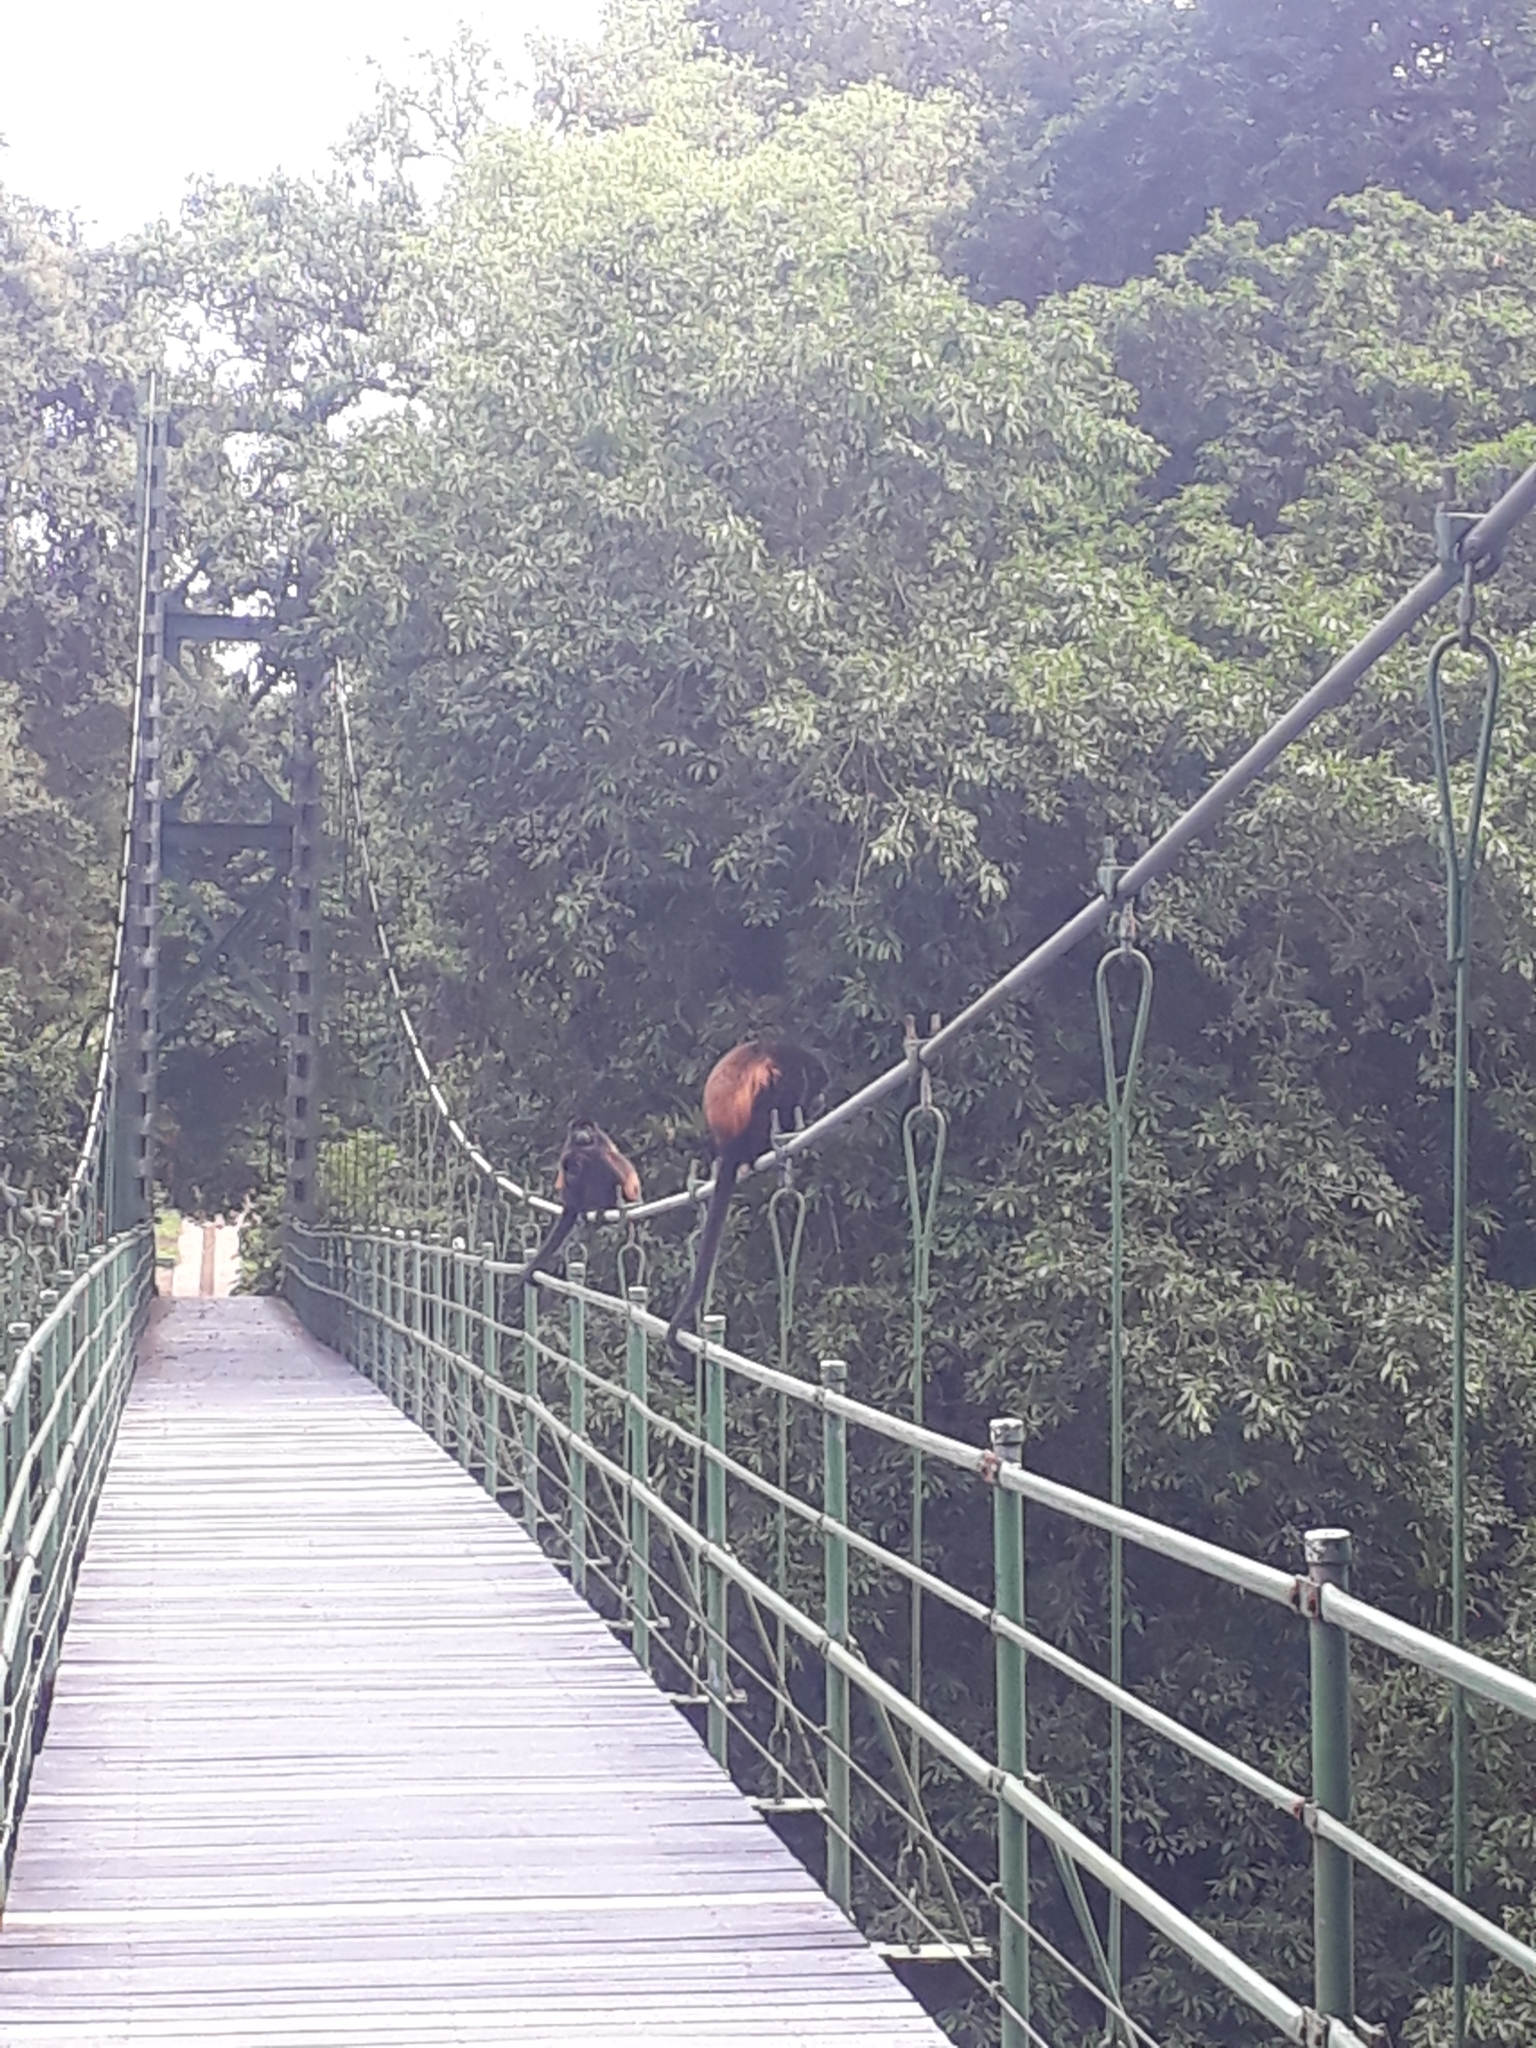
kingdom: Animalia
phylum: Chordata
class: Mammalia
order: Primates
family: Atelidae
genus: Alouatta
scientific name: Alouatta palliata
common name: Mantled howler
